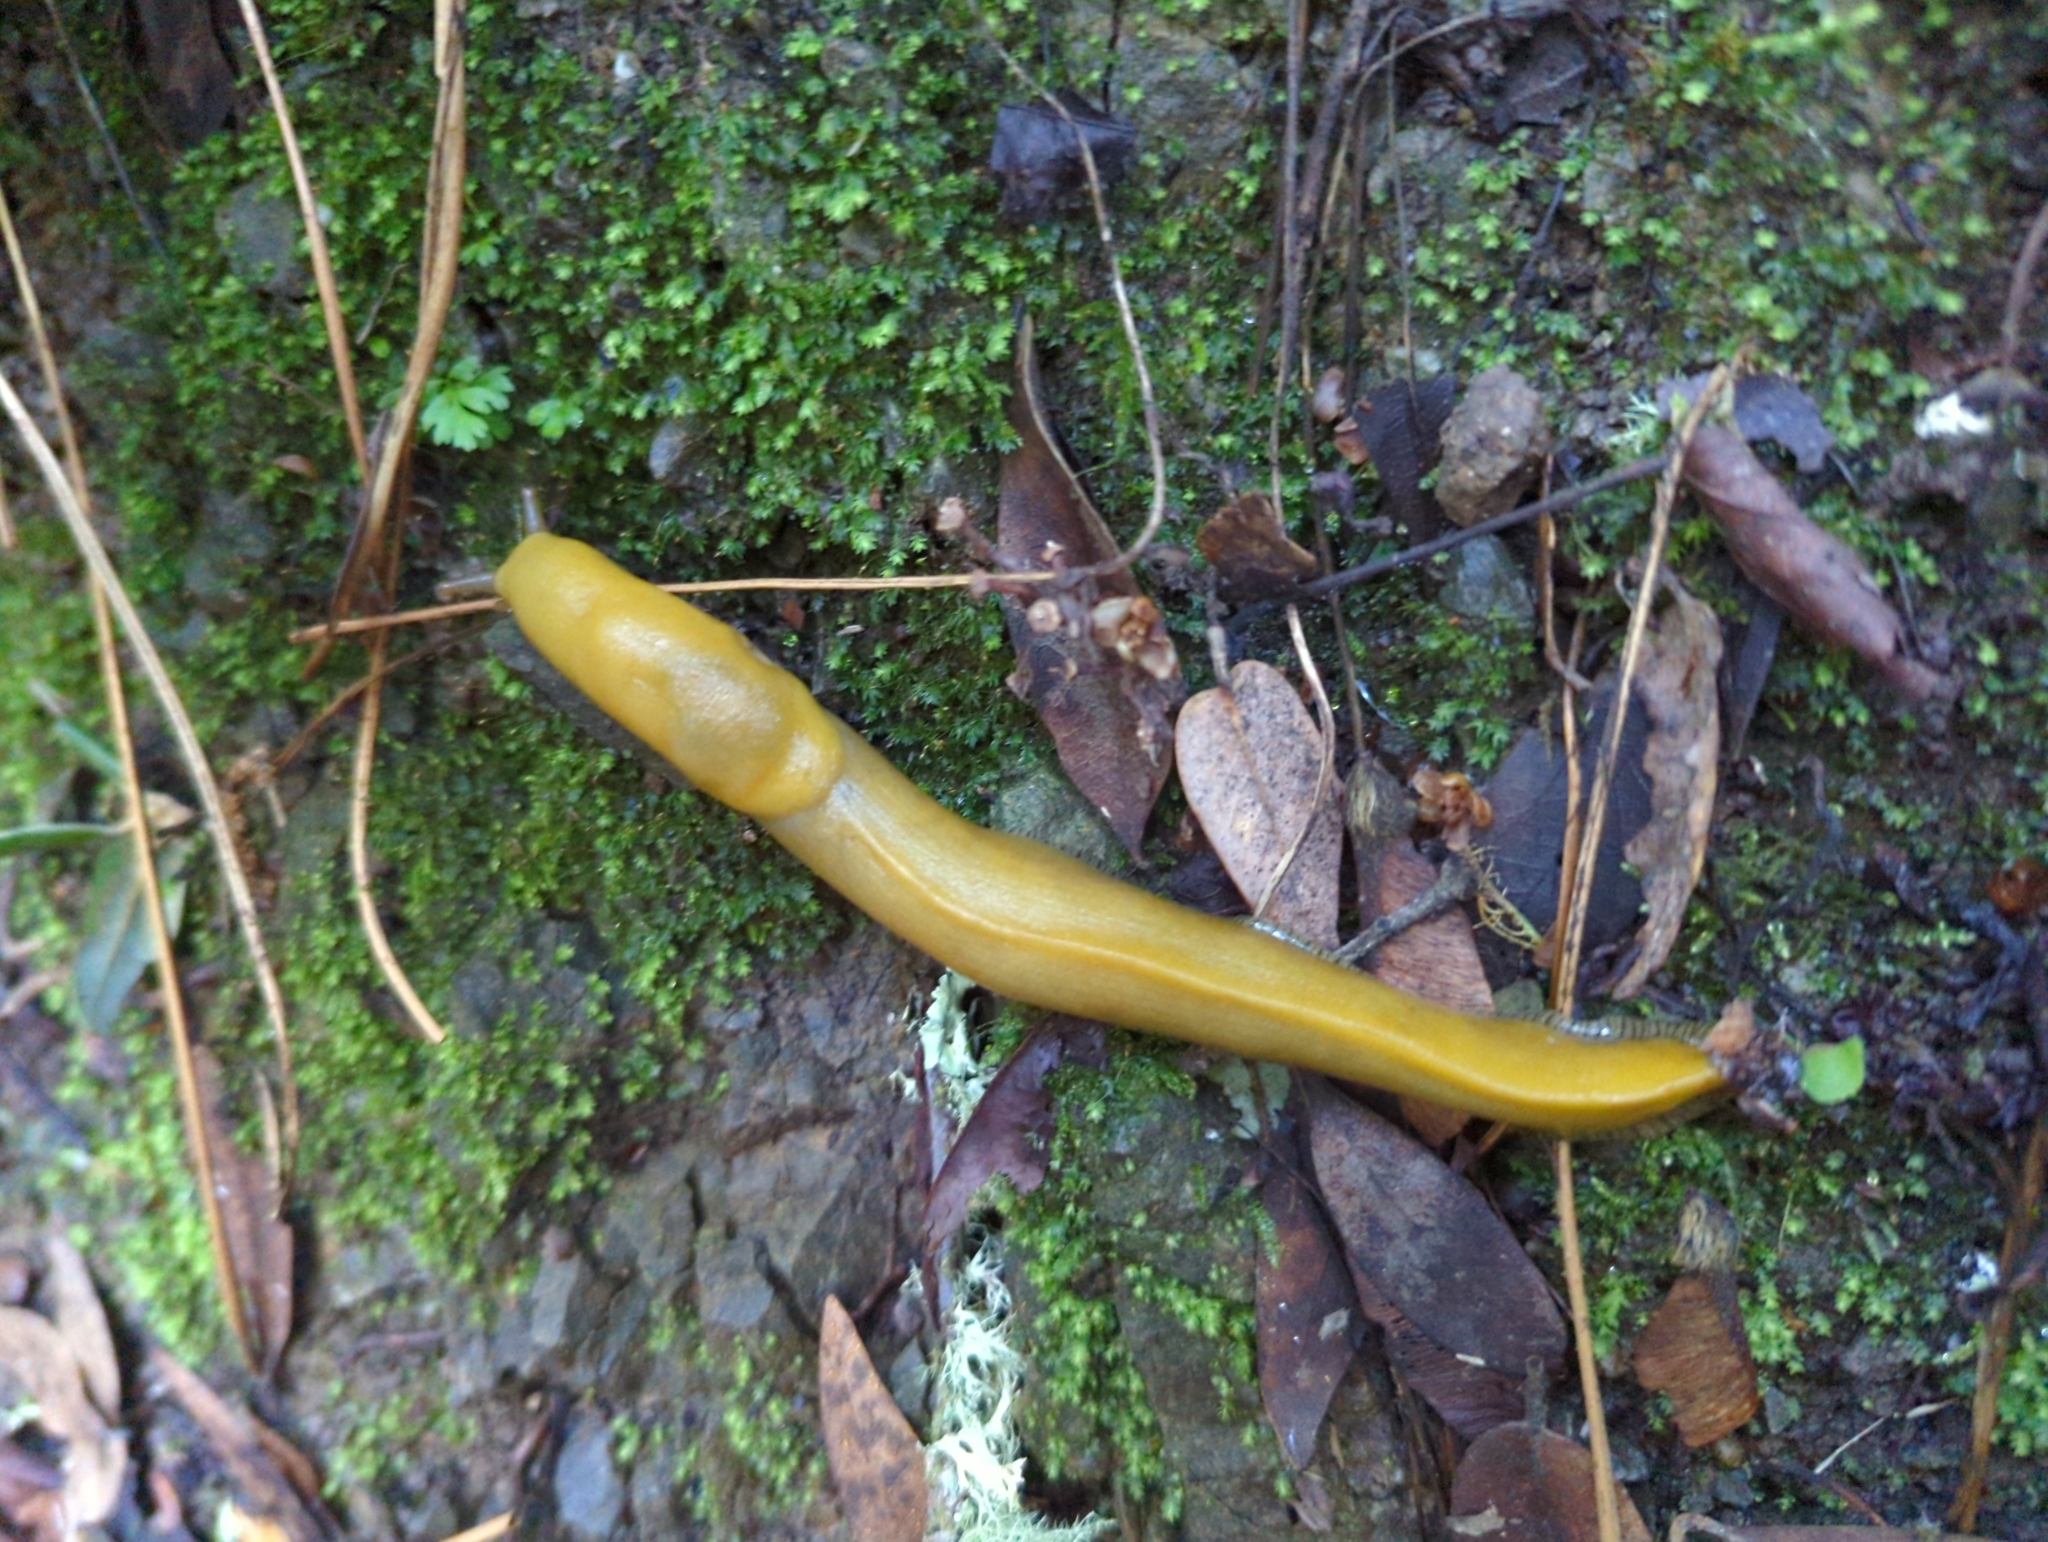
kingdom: Animalia
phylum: Mollusca
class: Gastropoda
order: Stylommatophora
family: Ariolimacidae
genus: Ariolimax
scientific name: Ariolimax californicus
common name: California banana slug
